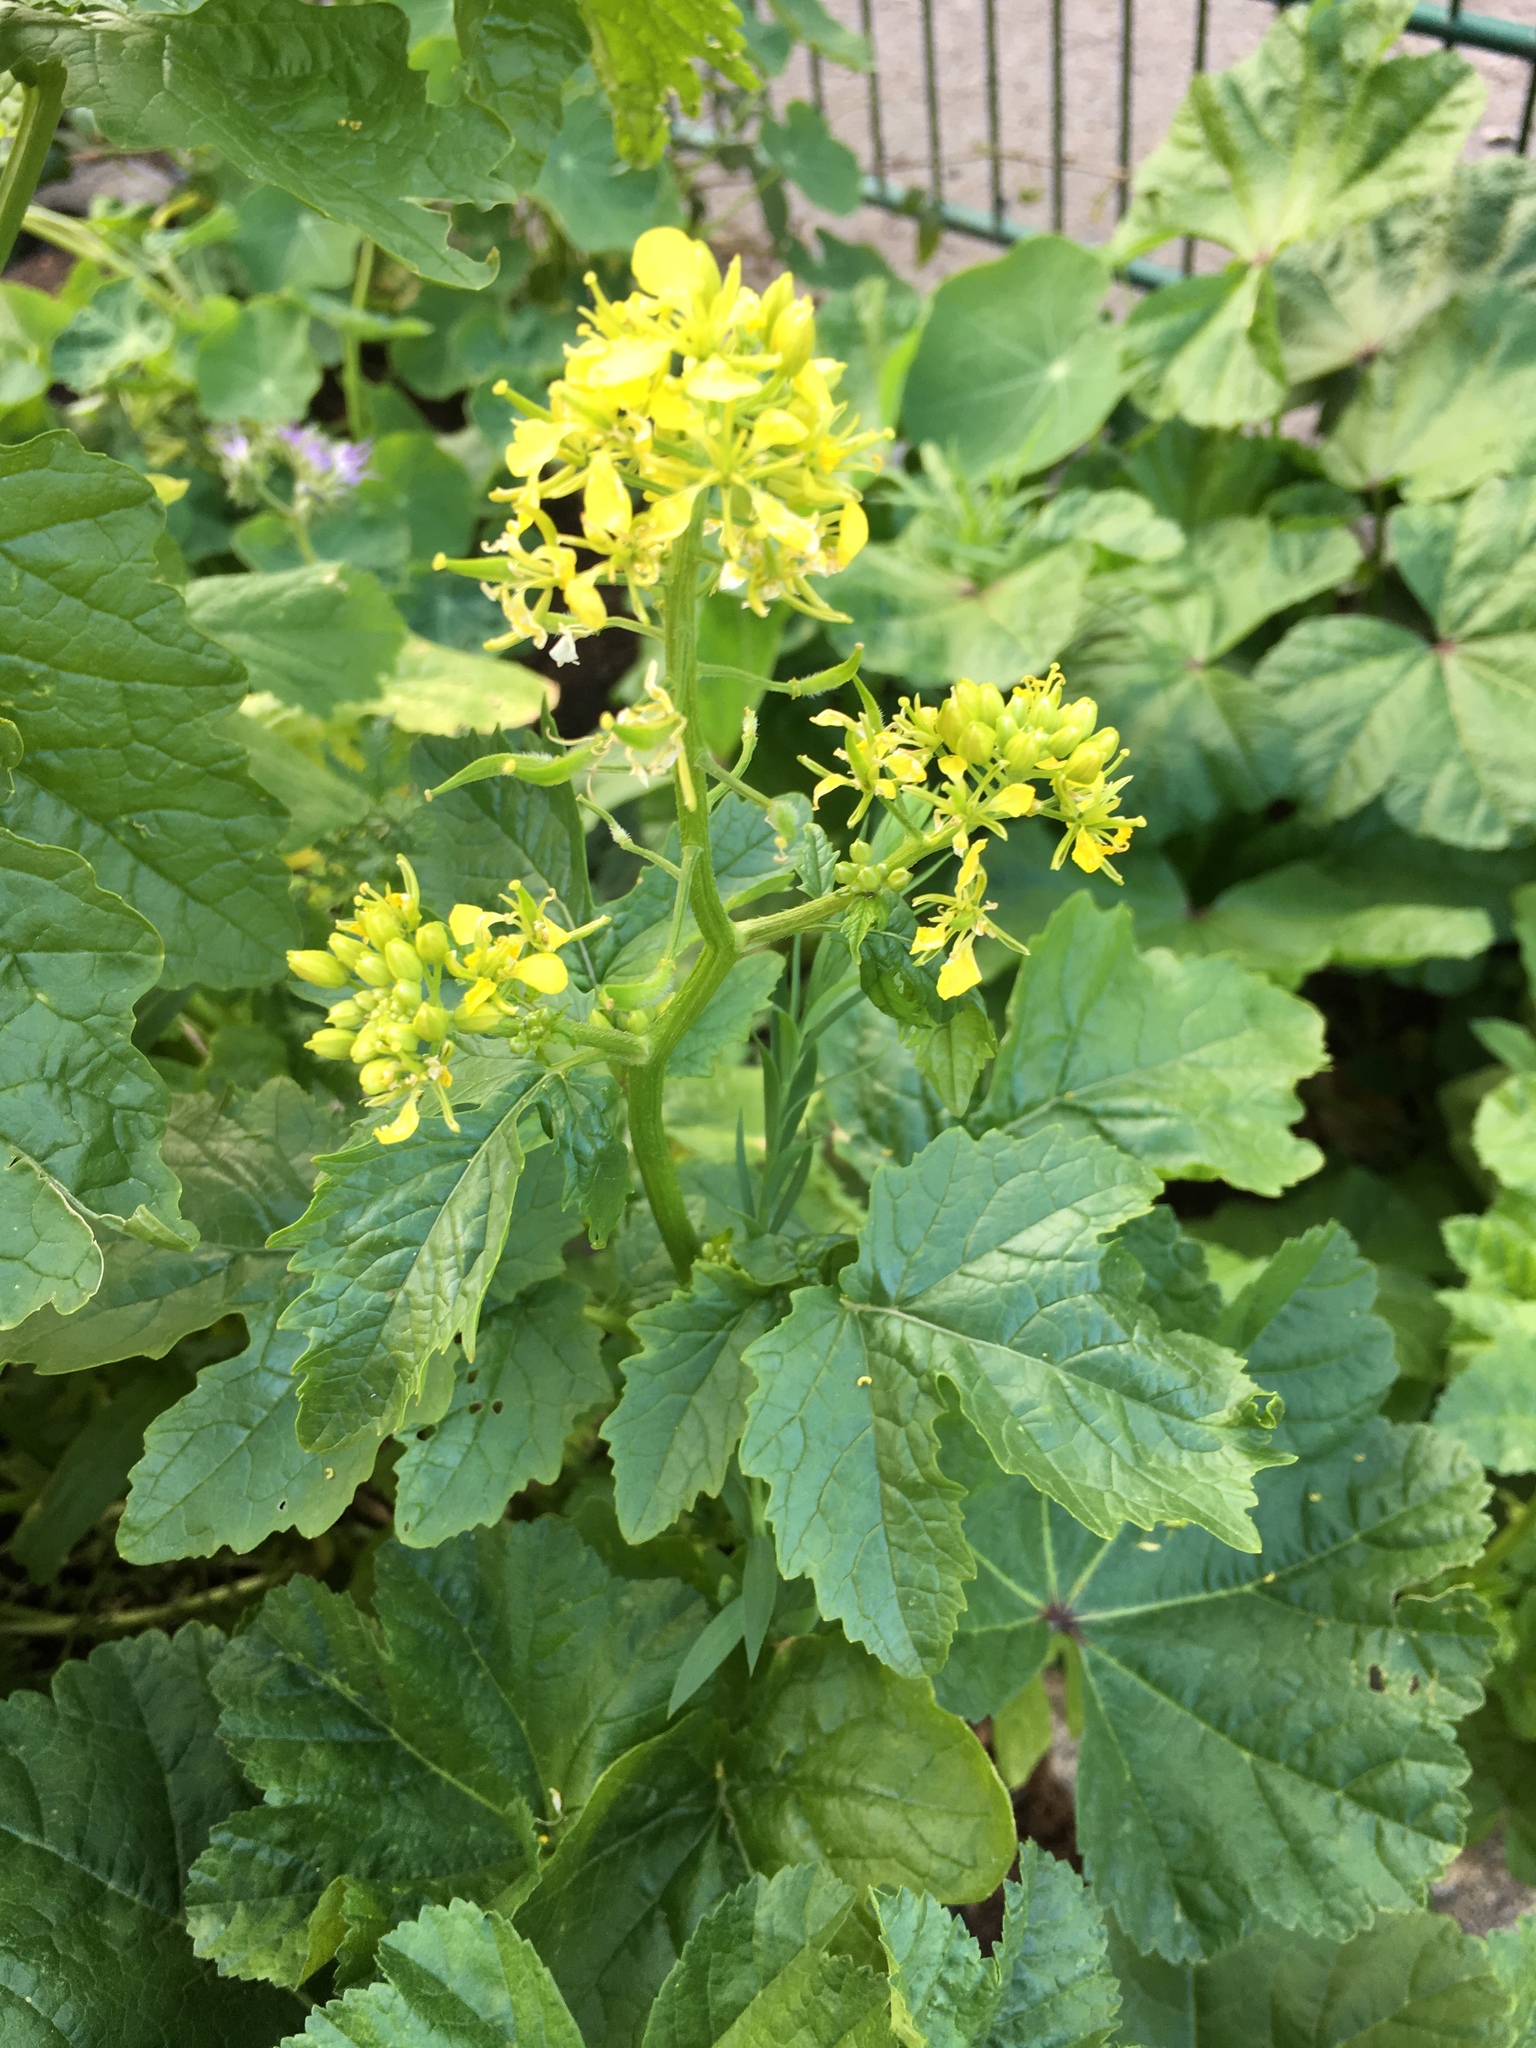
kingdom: Plantae
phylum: Tracheophyta
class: Magnoliopsida
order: Brassicales
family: Brassicaceae
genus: Sinapis
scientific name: Sinapis alba
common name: White mustard
